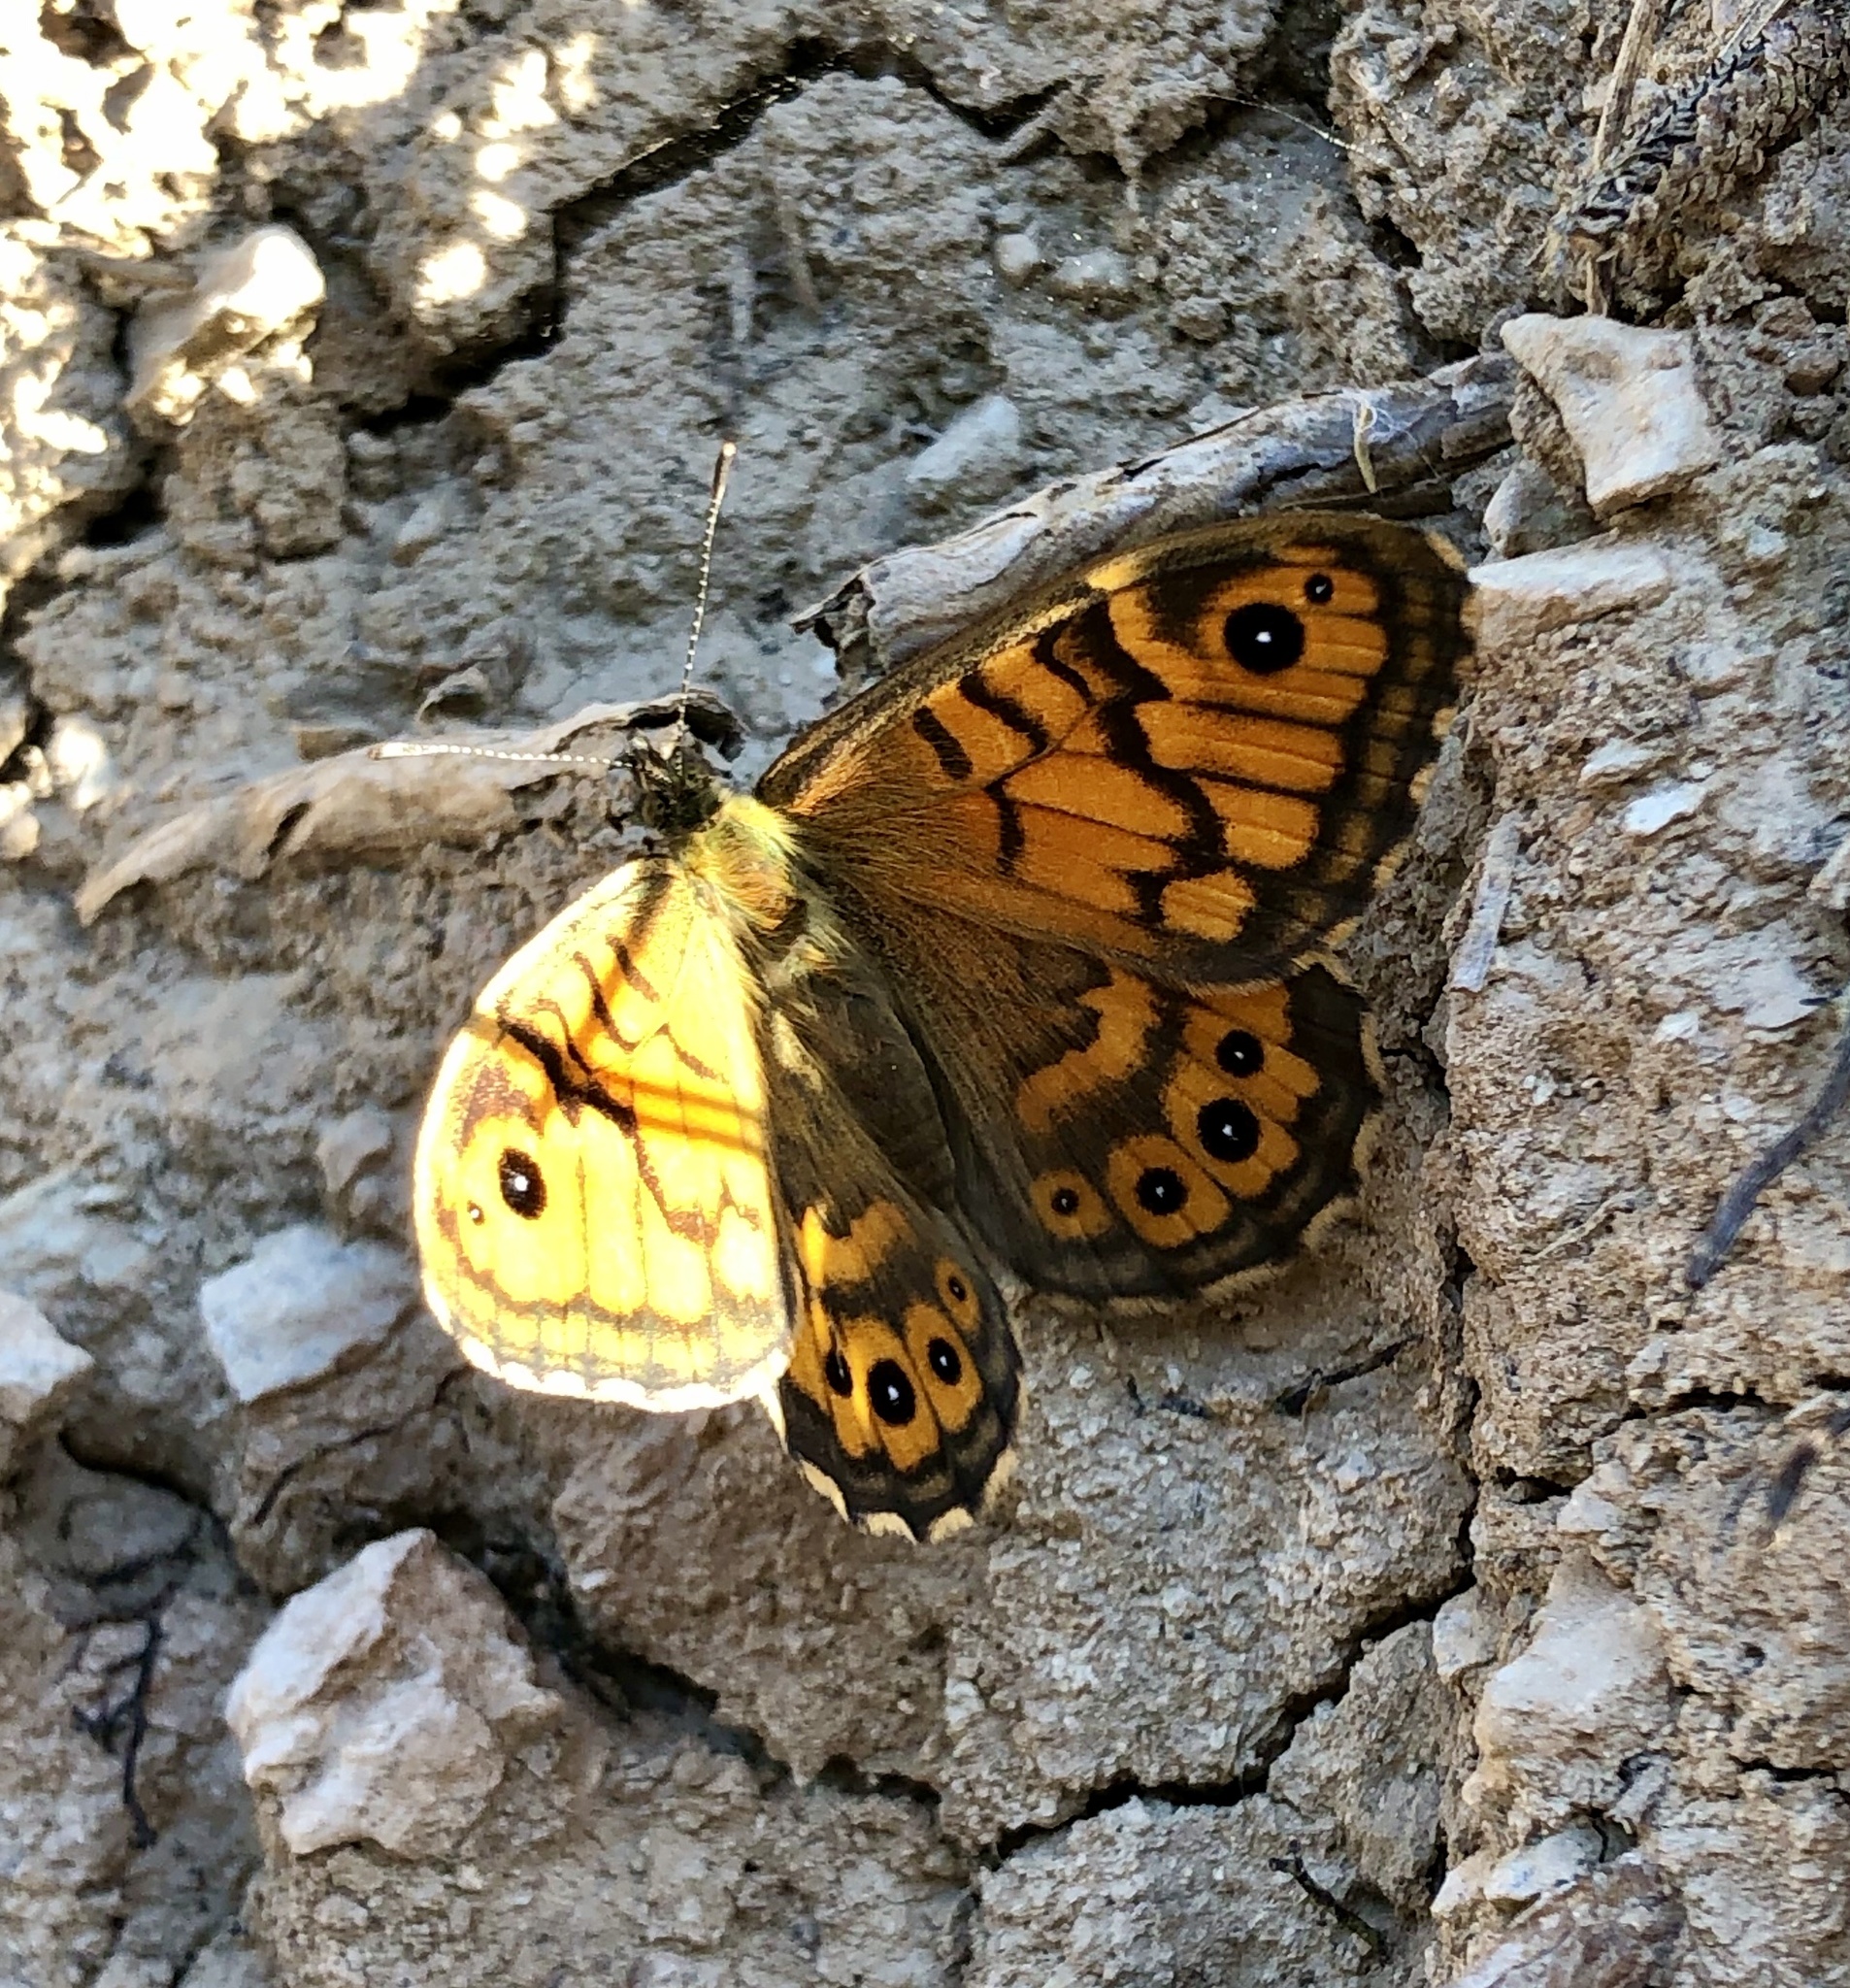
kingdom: Animalia
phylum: Arthropoda
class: Insecta
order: Lepidoptera
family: Nymphalidae
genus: Pararge
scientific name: Pararge Lasiommata megera
